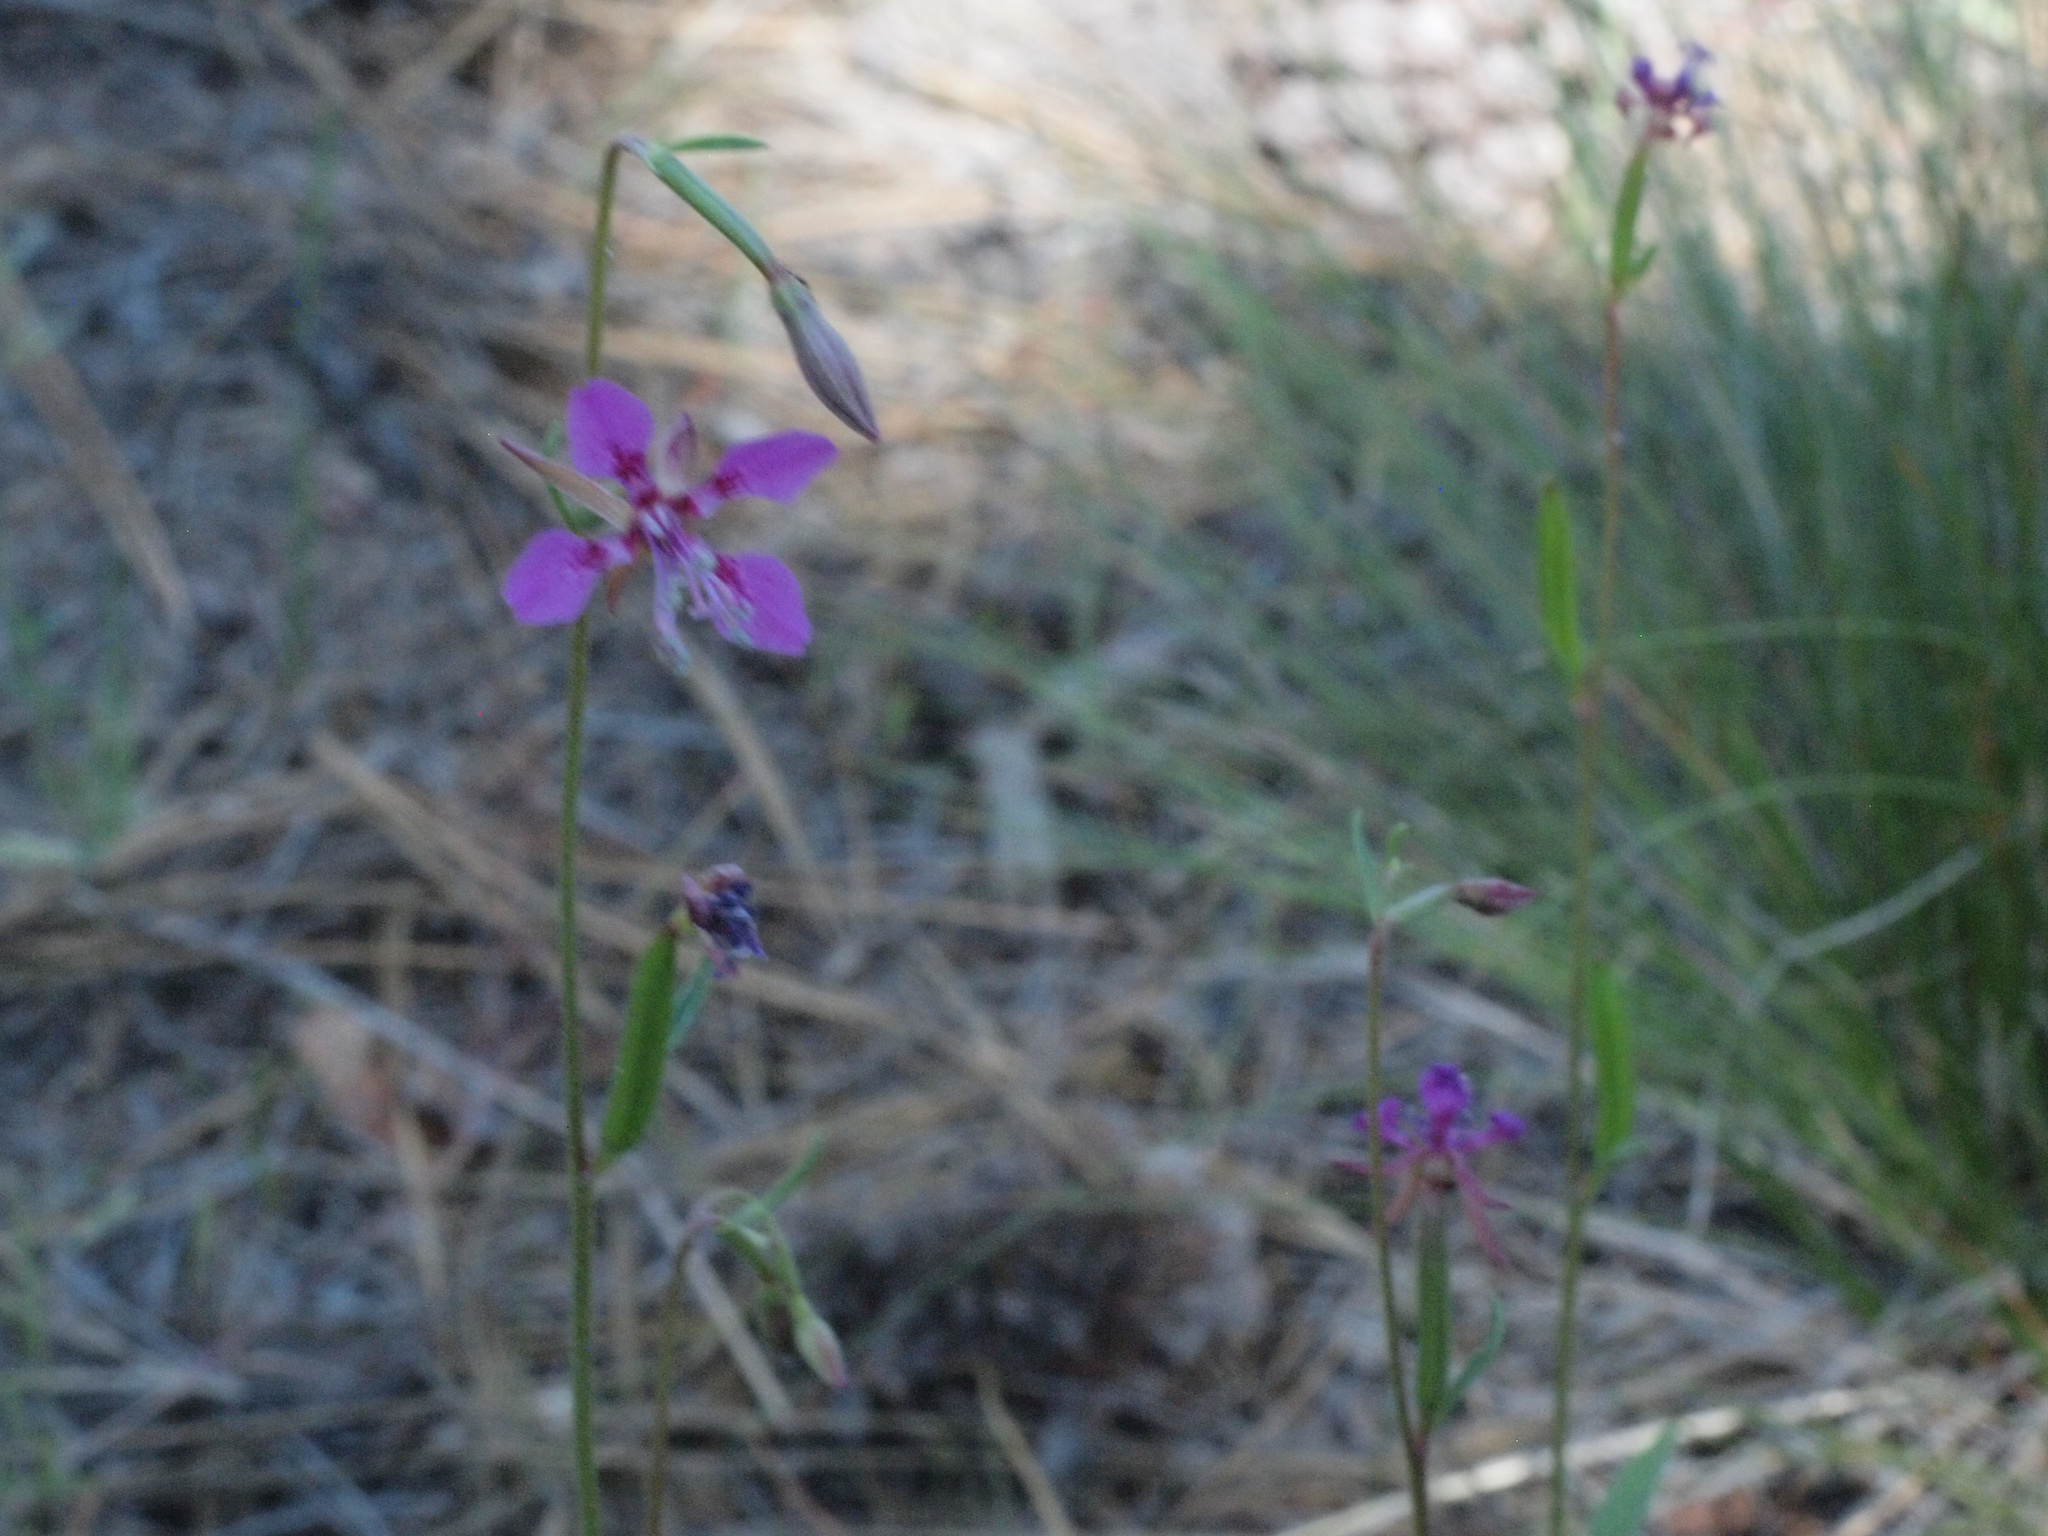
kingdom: Plantae
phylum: Tracheophyta
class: Magnoliopsida
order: Myrtales
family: Onagraceae
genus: Clarkia
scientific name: Clarkia rhomboidea
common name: Broadleaf clarkia
